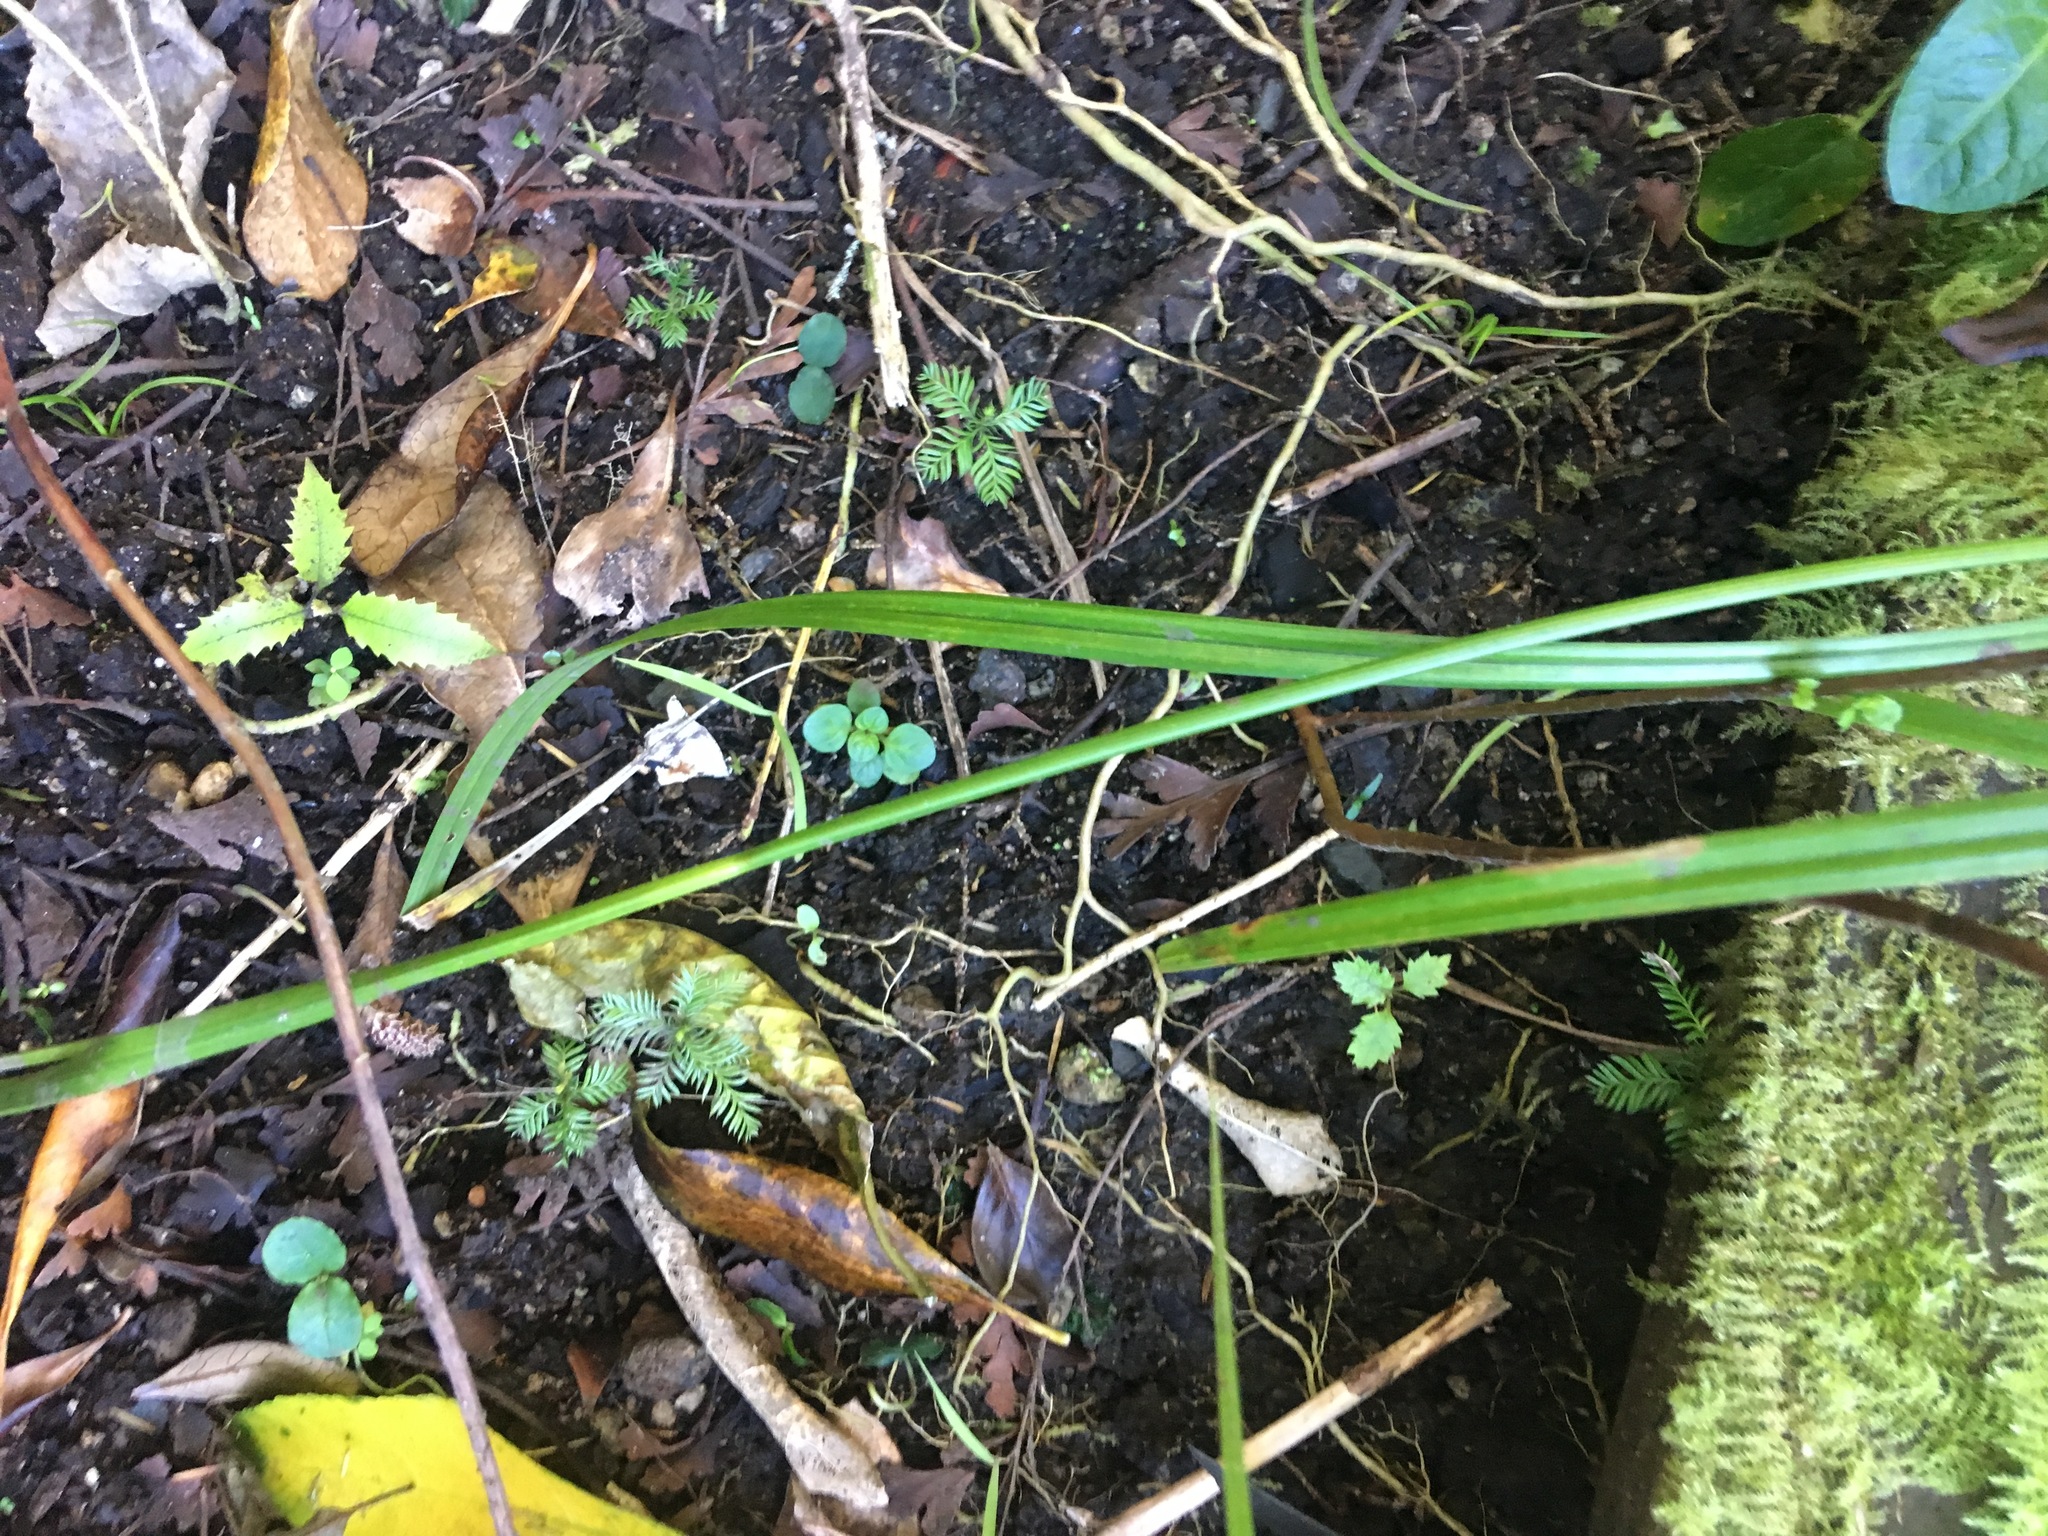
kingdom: Plantae
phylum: Tracheophyta
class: Magnoliopsida
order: Proteales
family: Proteaceae
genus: Knightia
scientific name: Knightia excelsa
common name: New zealand-honeysuckle
